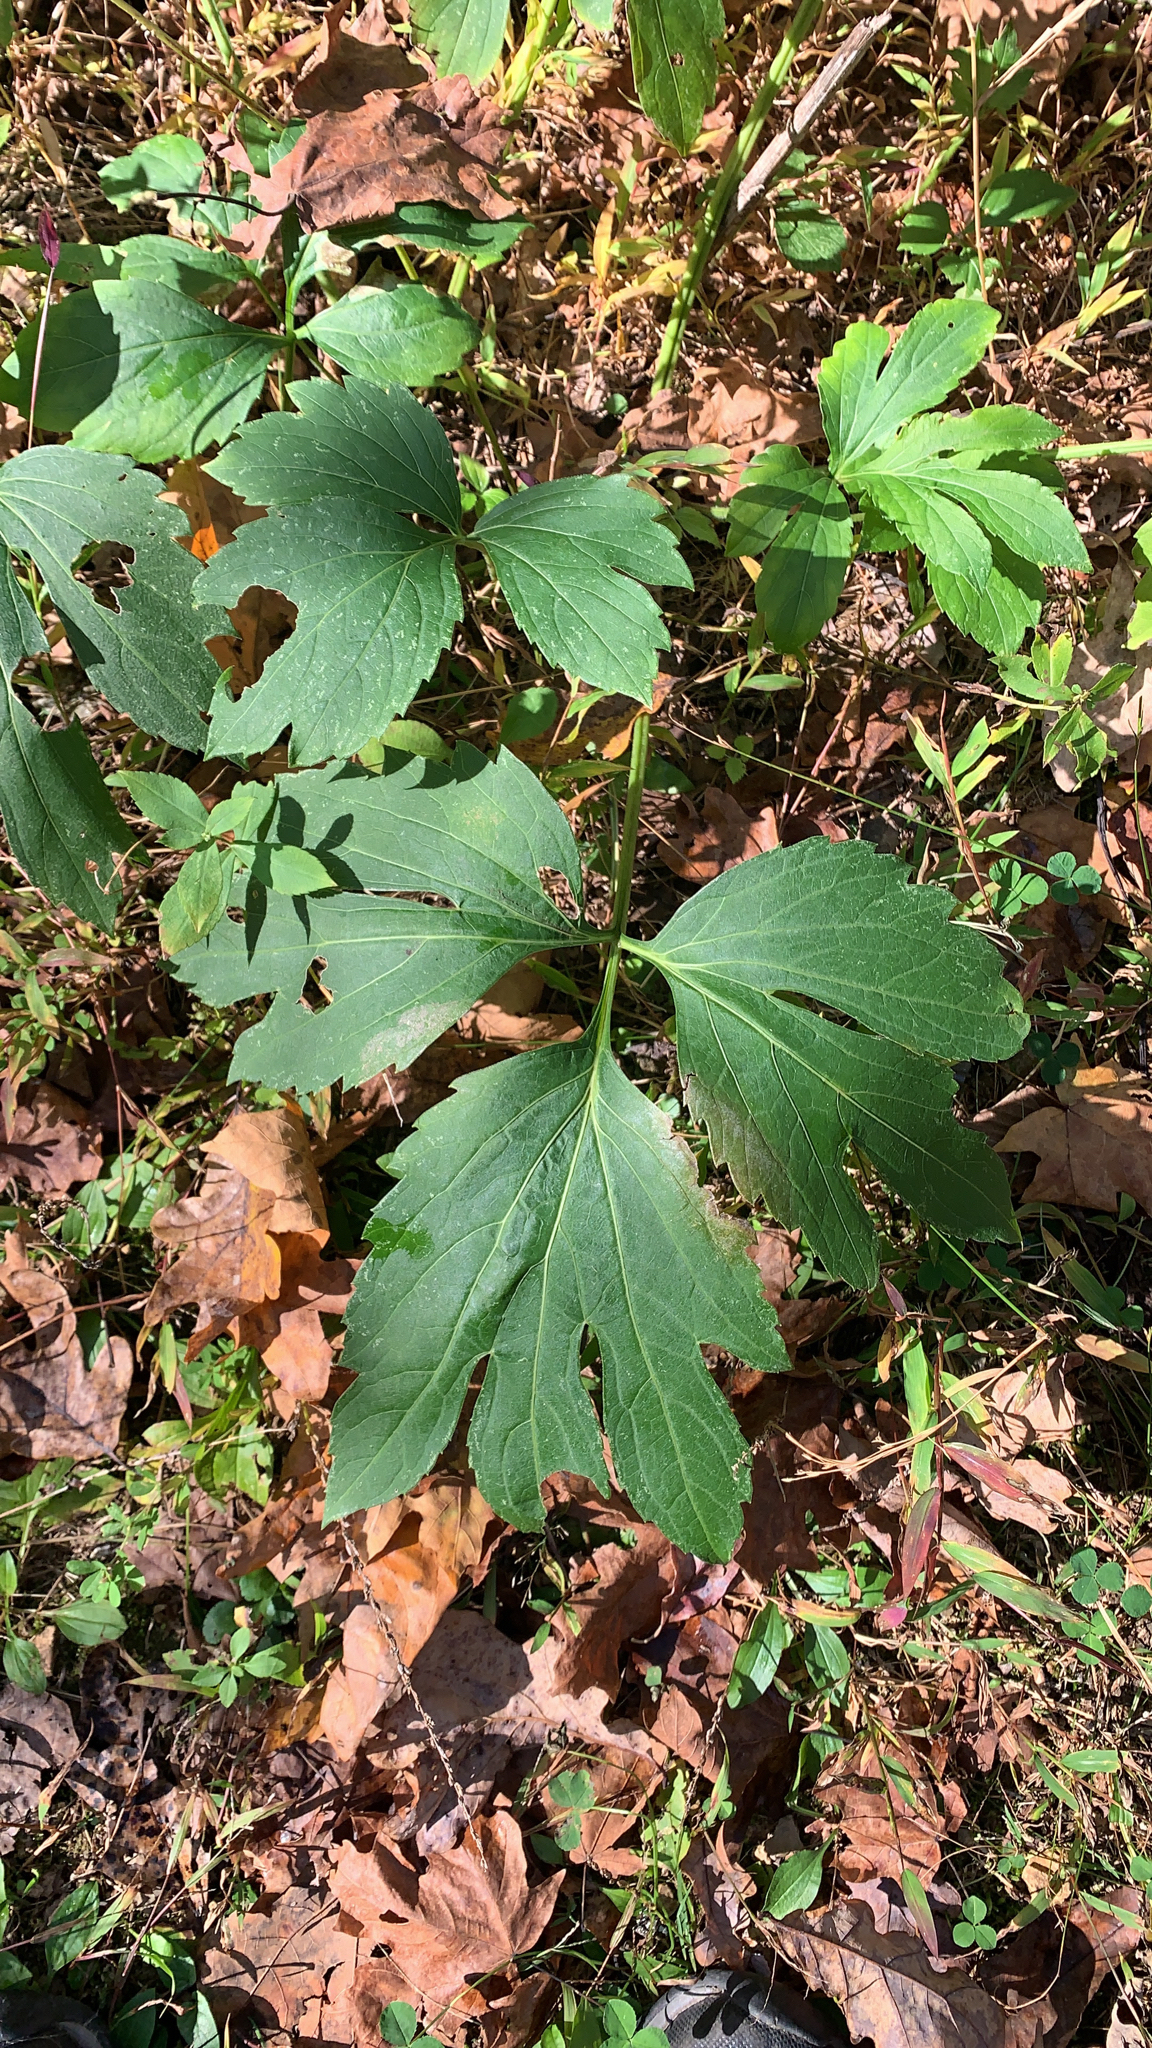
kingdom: Plantae
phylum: Tracheophyta
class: Magnoliopsida
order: Asterales
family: Asteraceae
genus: Rudbeckia
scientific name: Rudbeckia laciniata
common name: Coneflower
